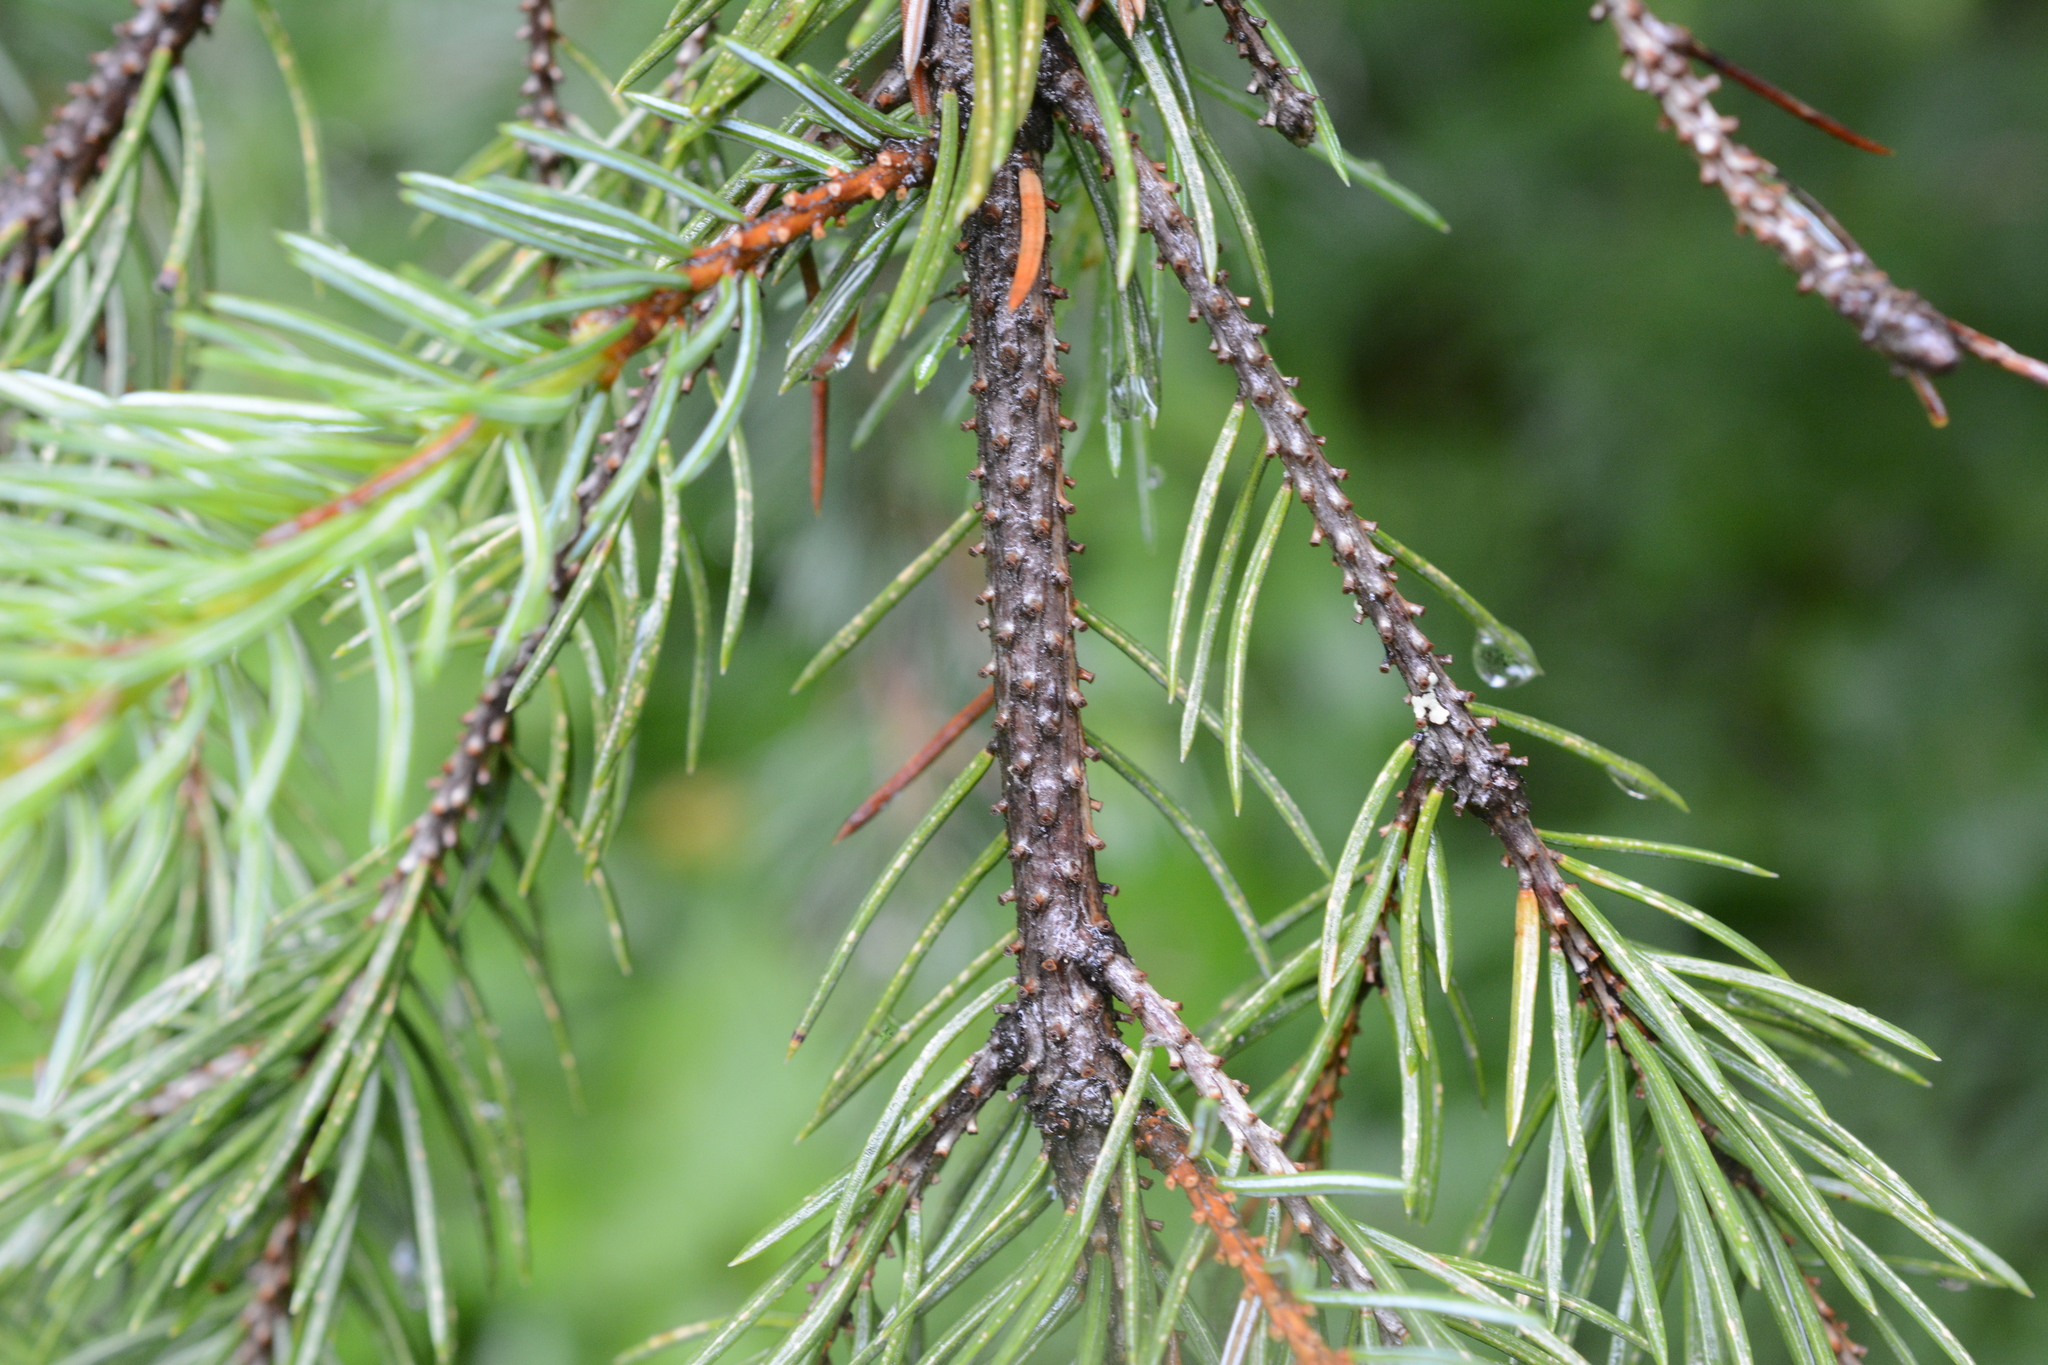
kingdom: Plantae
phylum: Tracheophyta
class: Pinopsida
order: Pinales
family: Pinaceae
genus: Picea
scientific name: Picea engelmannii
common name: Engelmann spruce
